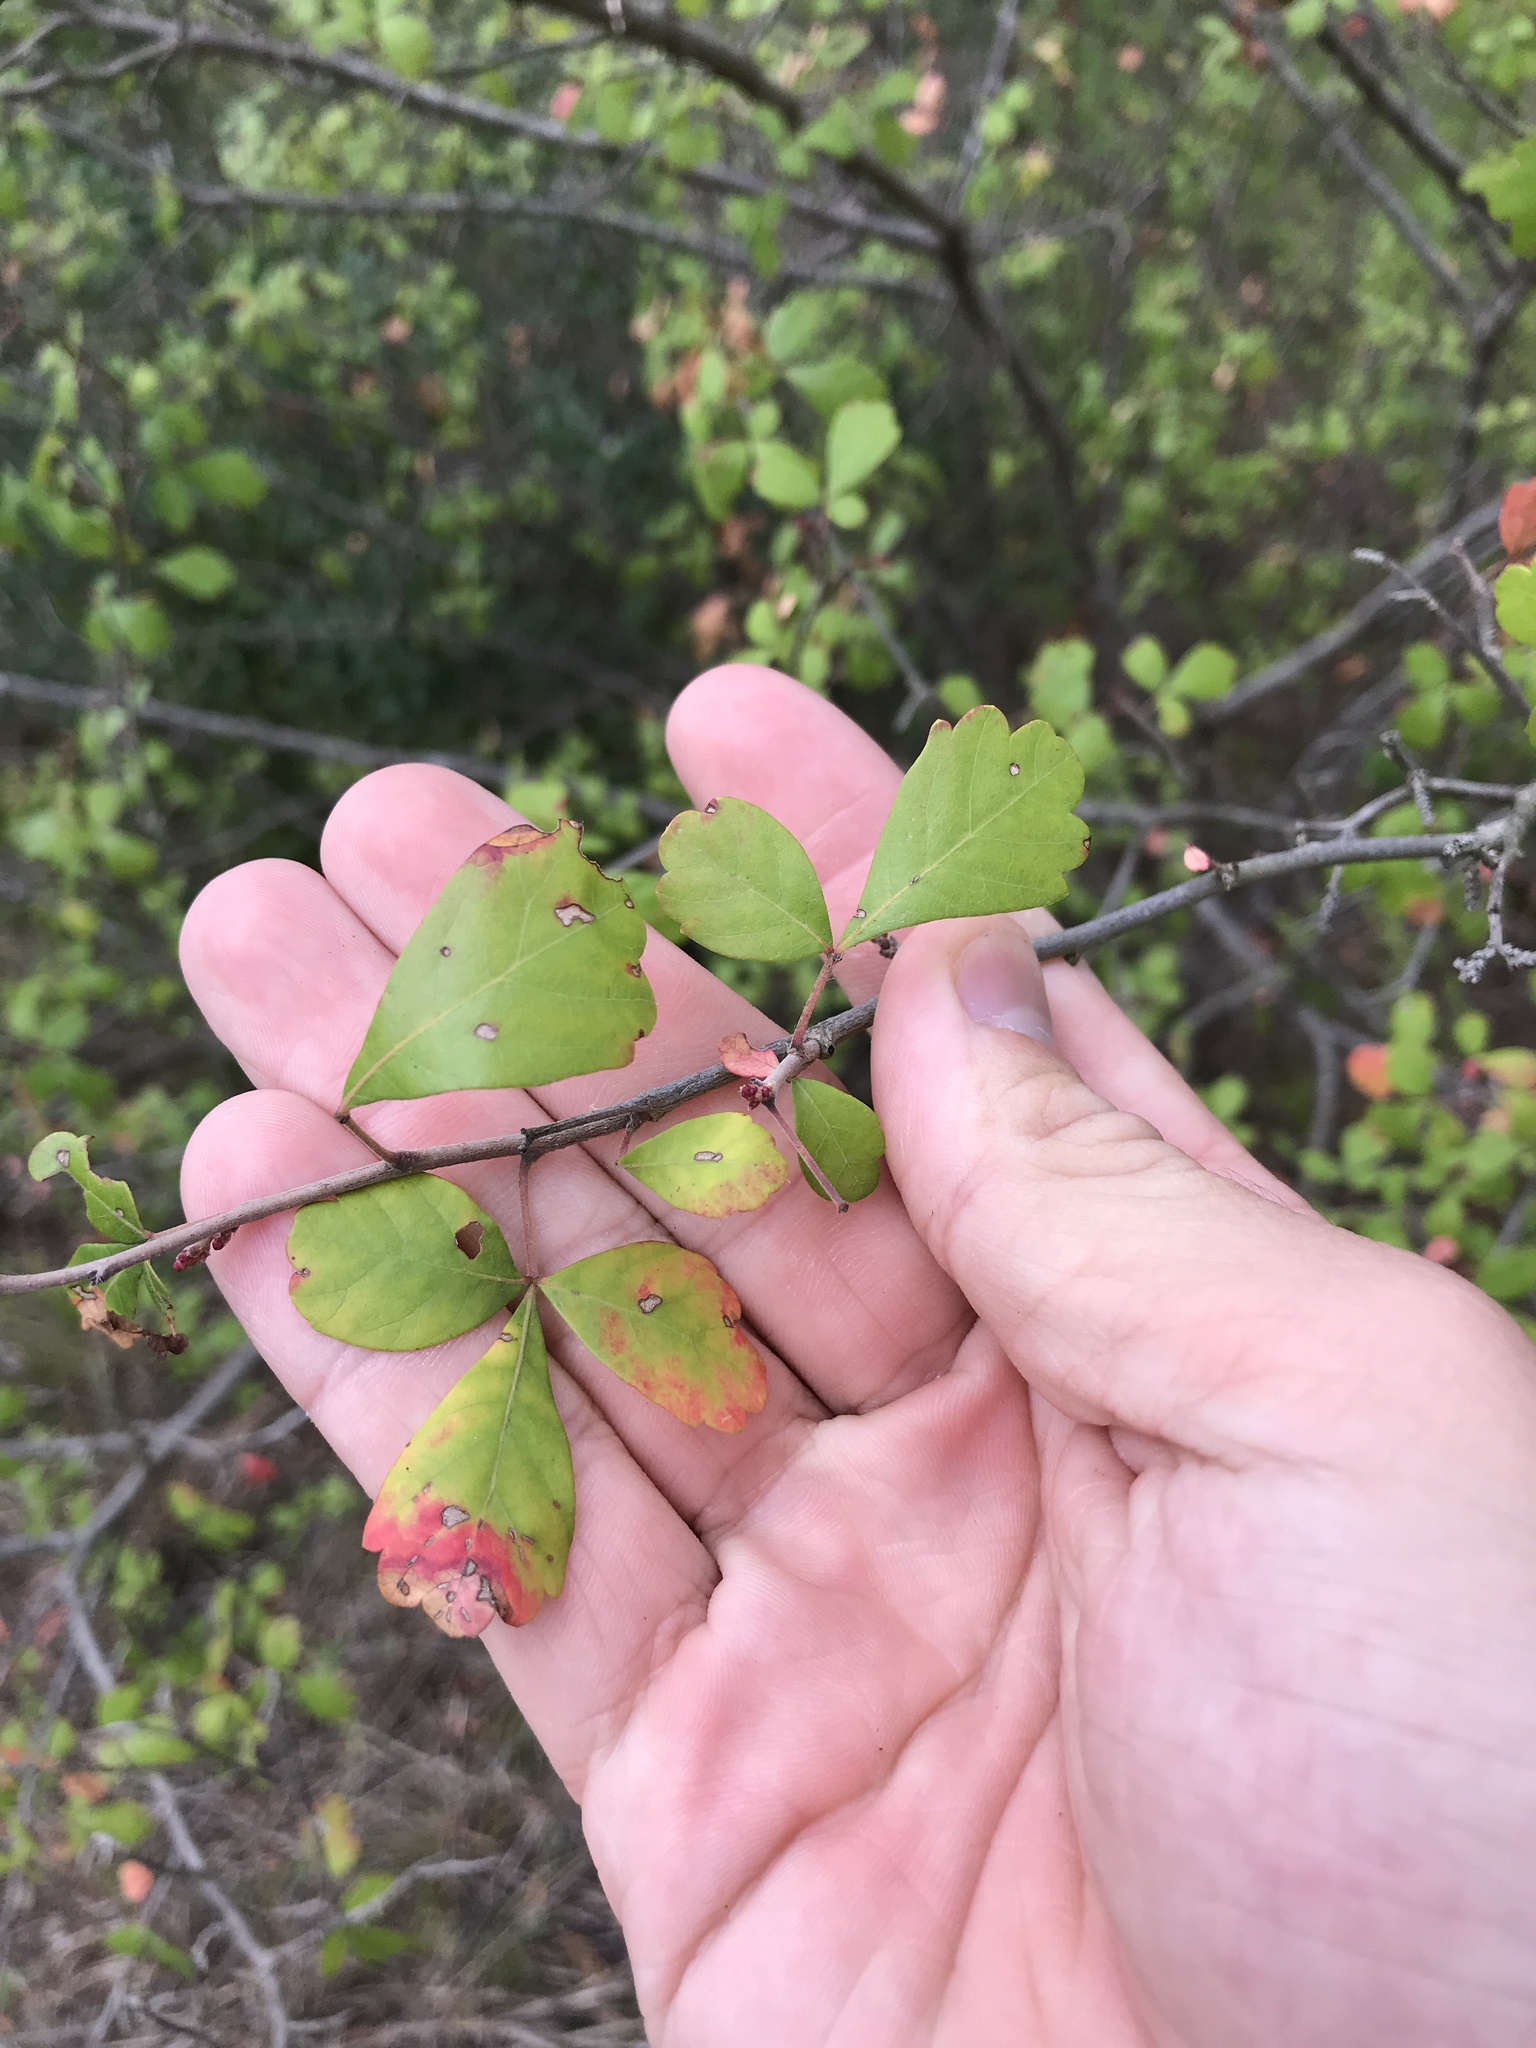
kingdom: Plantae
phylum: Tracheophyta
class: Magnoliopsida
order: Sapindales
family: Anacardiaceae
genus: Rhus
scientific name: Rhus aromatica
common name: Aromatic sumac
